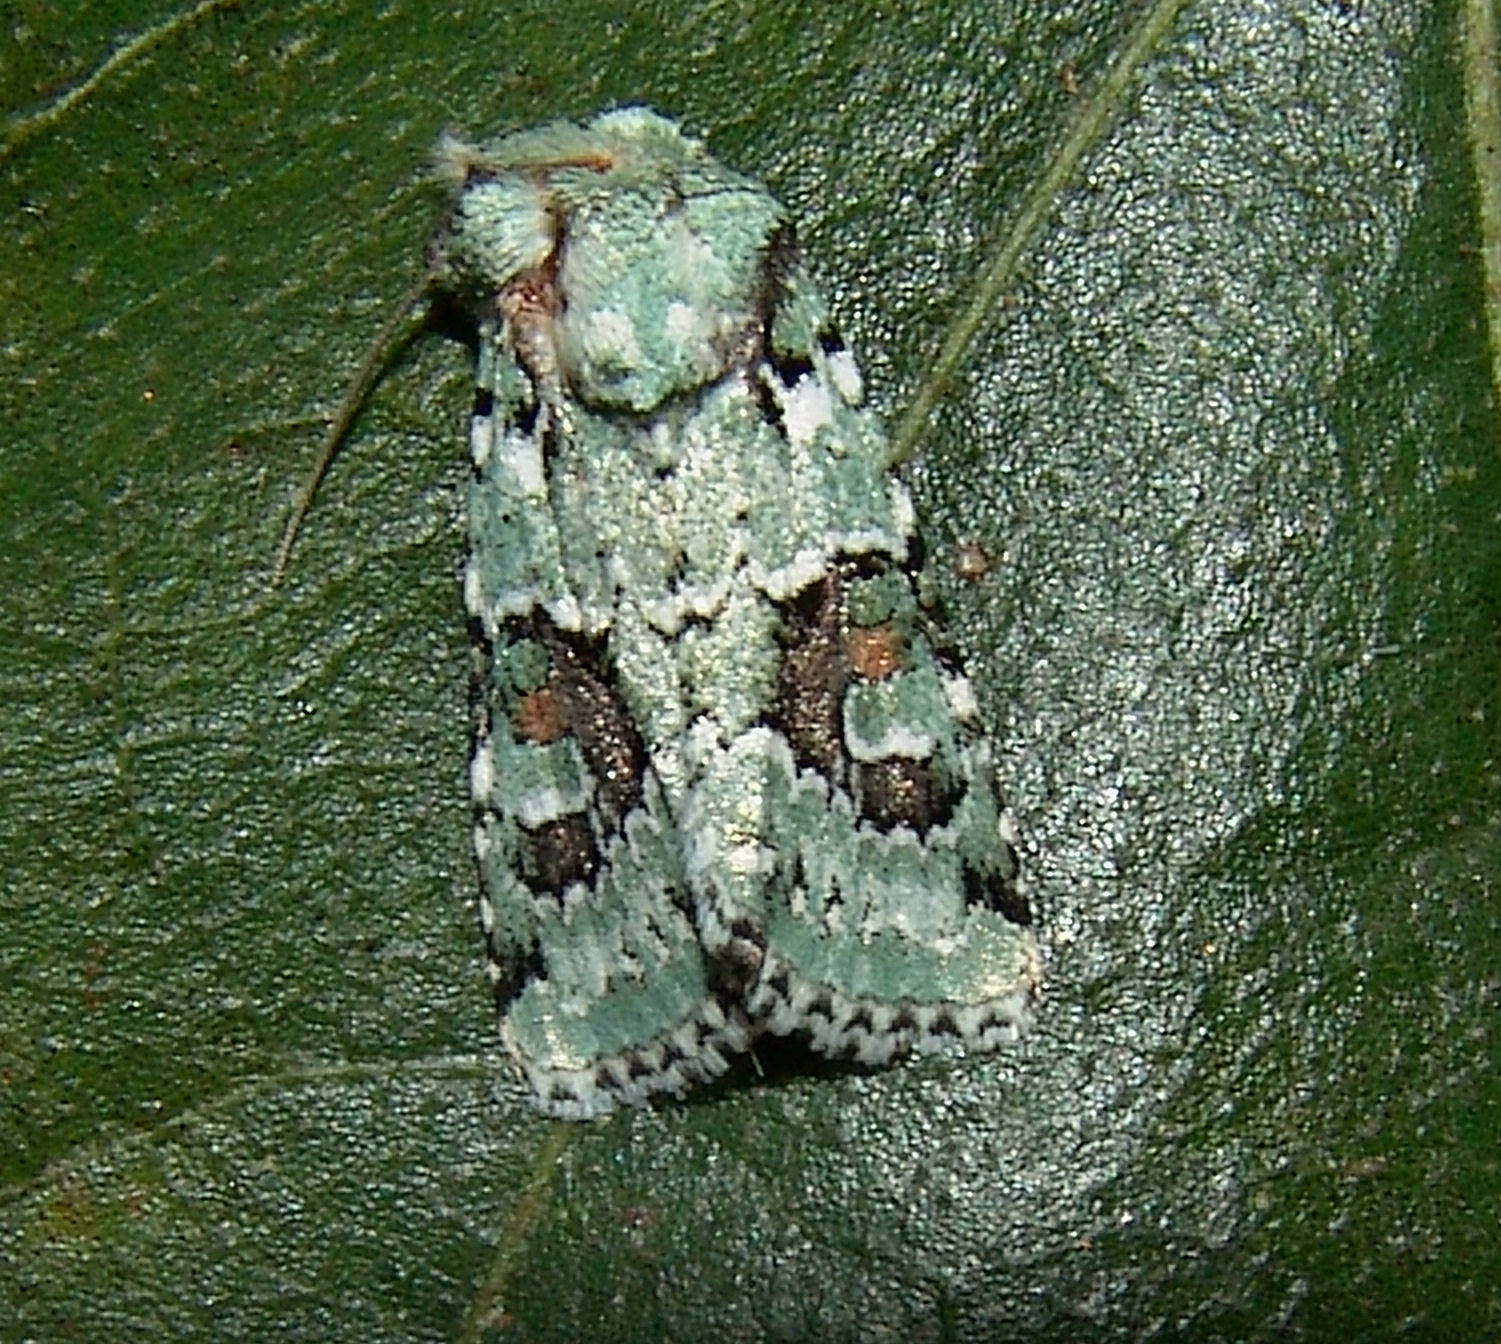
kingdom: Animalia
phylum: Arthropoda
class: Insecta
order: Lepidoptera
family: Noctuidae
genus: Lacinipolia
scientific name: Lacinipolia laudabilis
